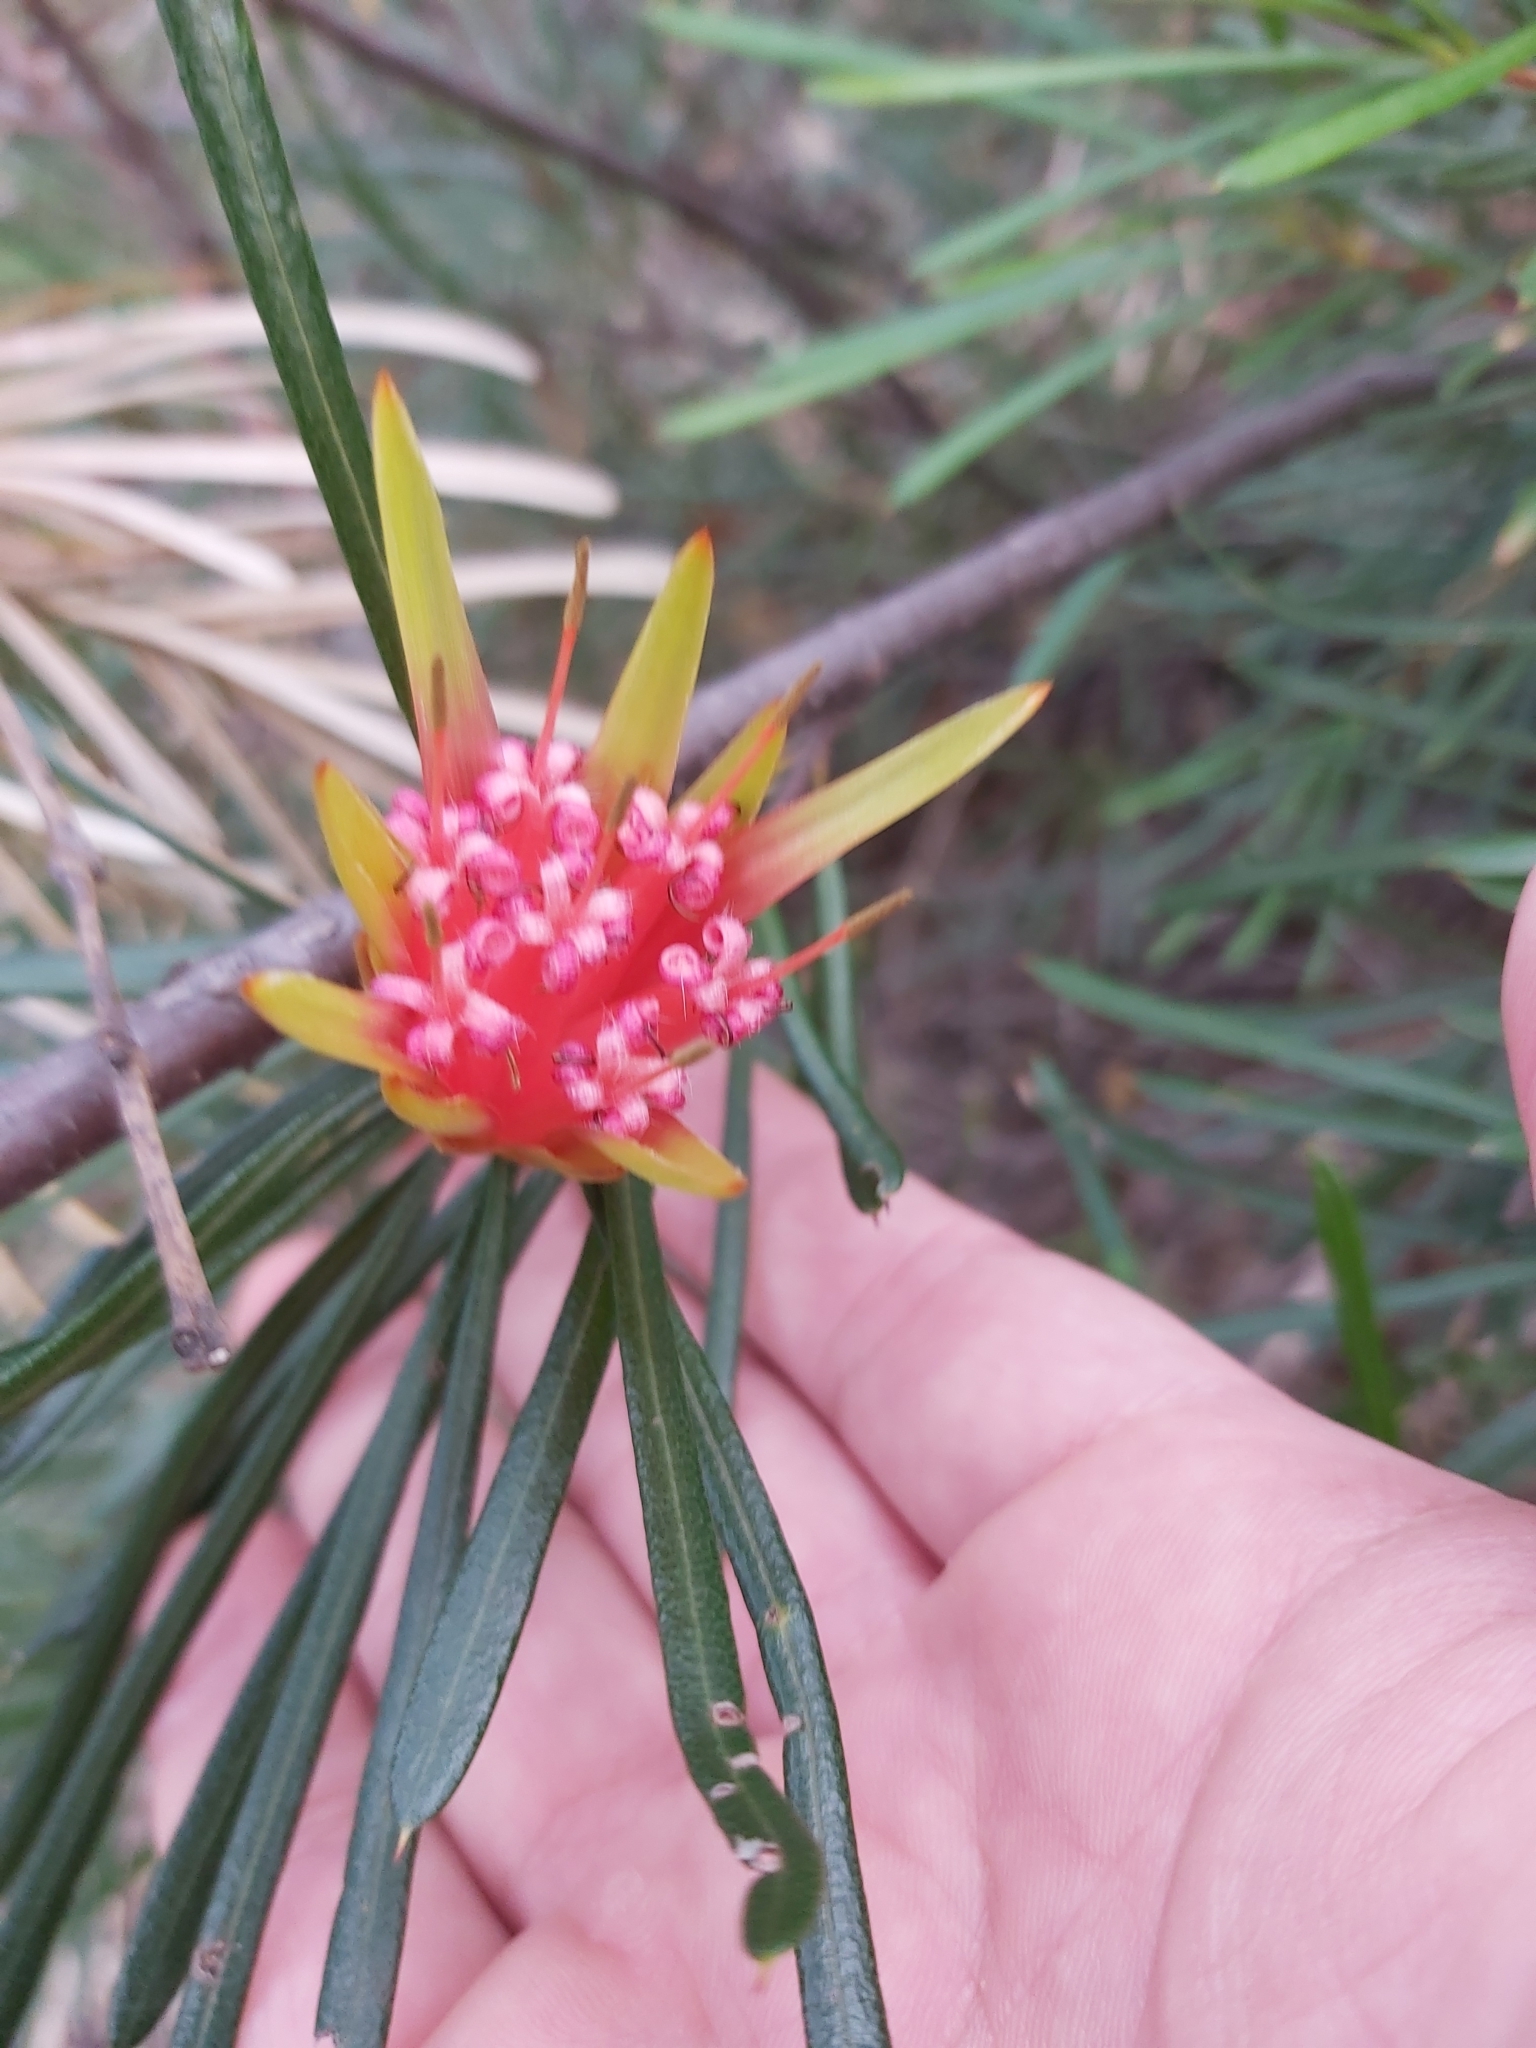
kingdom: Plantae
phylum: Tracheophyta
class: Magnoliopsida
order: Proteales
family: Proteaceae
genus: Lambertia
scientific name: Lambertia formosa
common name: Mountain-devil
